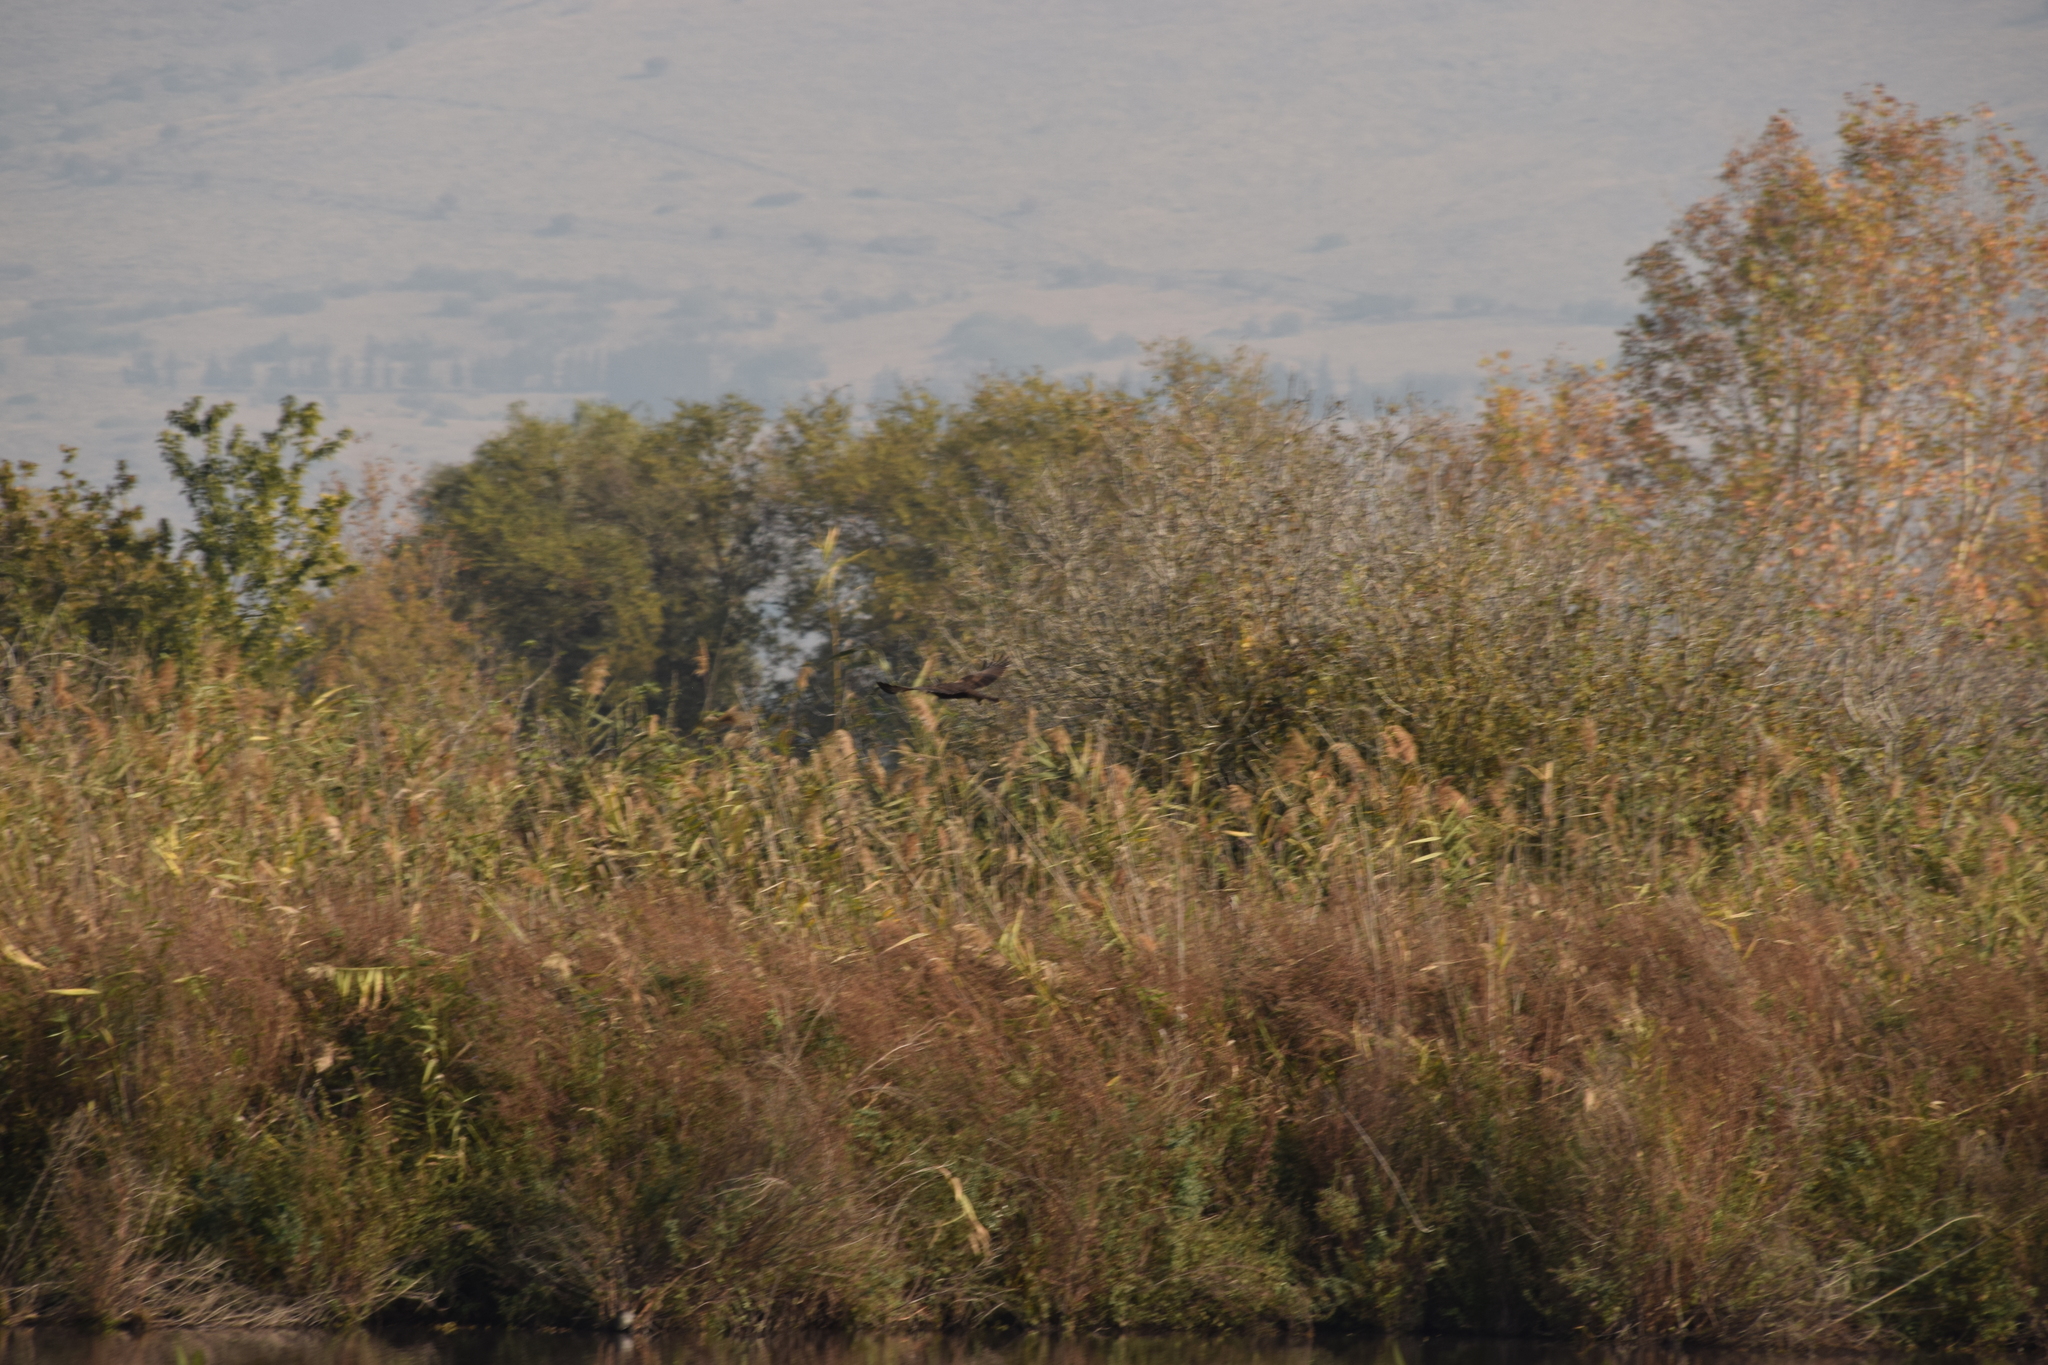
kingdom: Animalia
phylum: Chordata
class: Aves
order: Accipitriformes
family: Accipitridae
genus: Circus
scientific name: Circus aeruginosus
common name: Western marsh harrier
